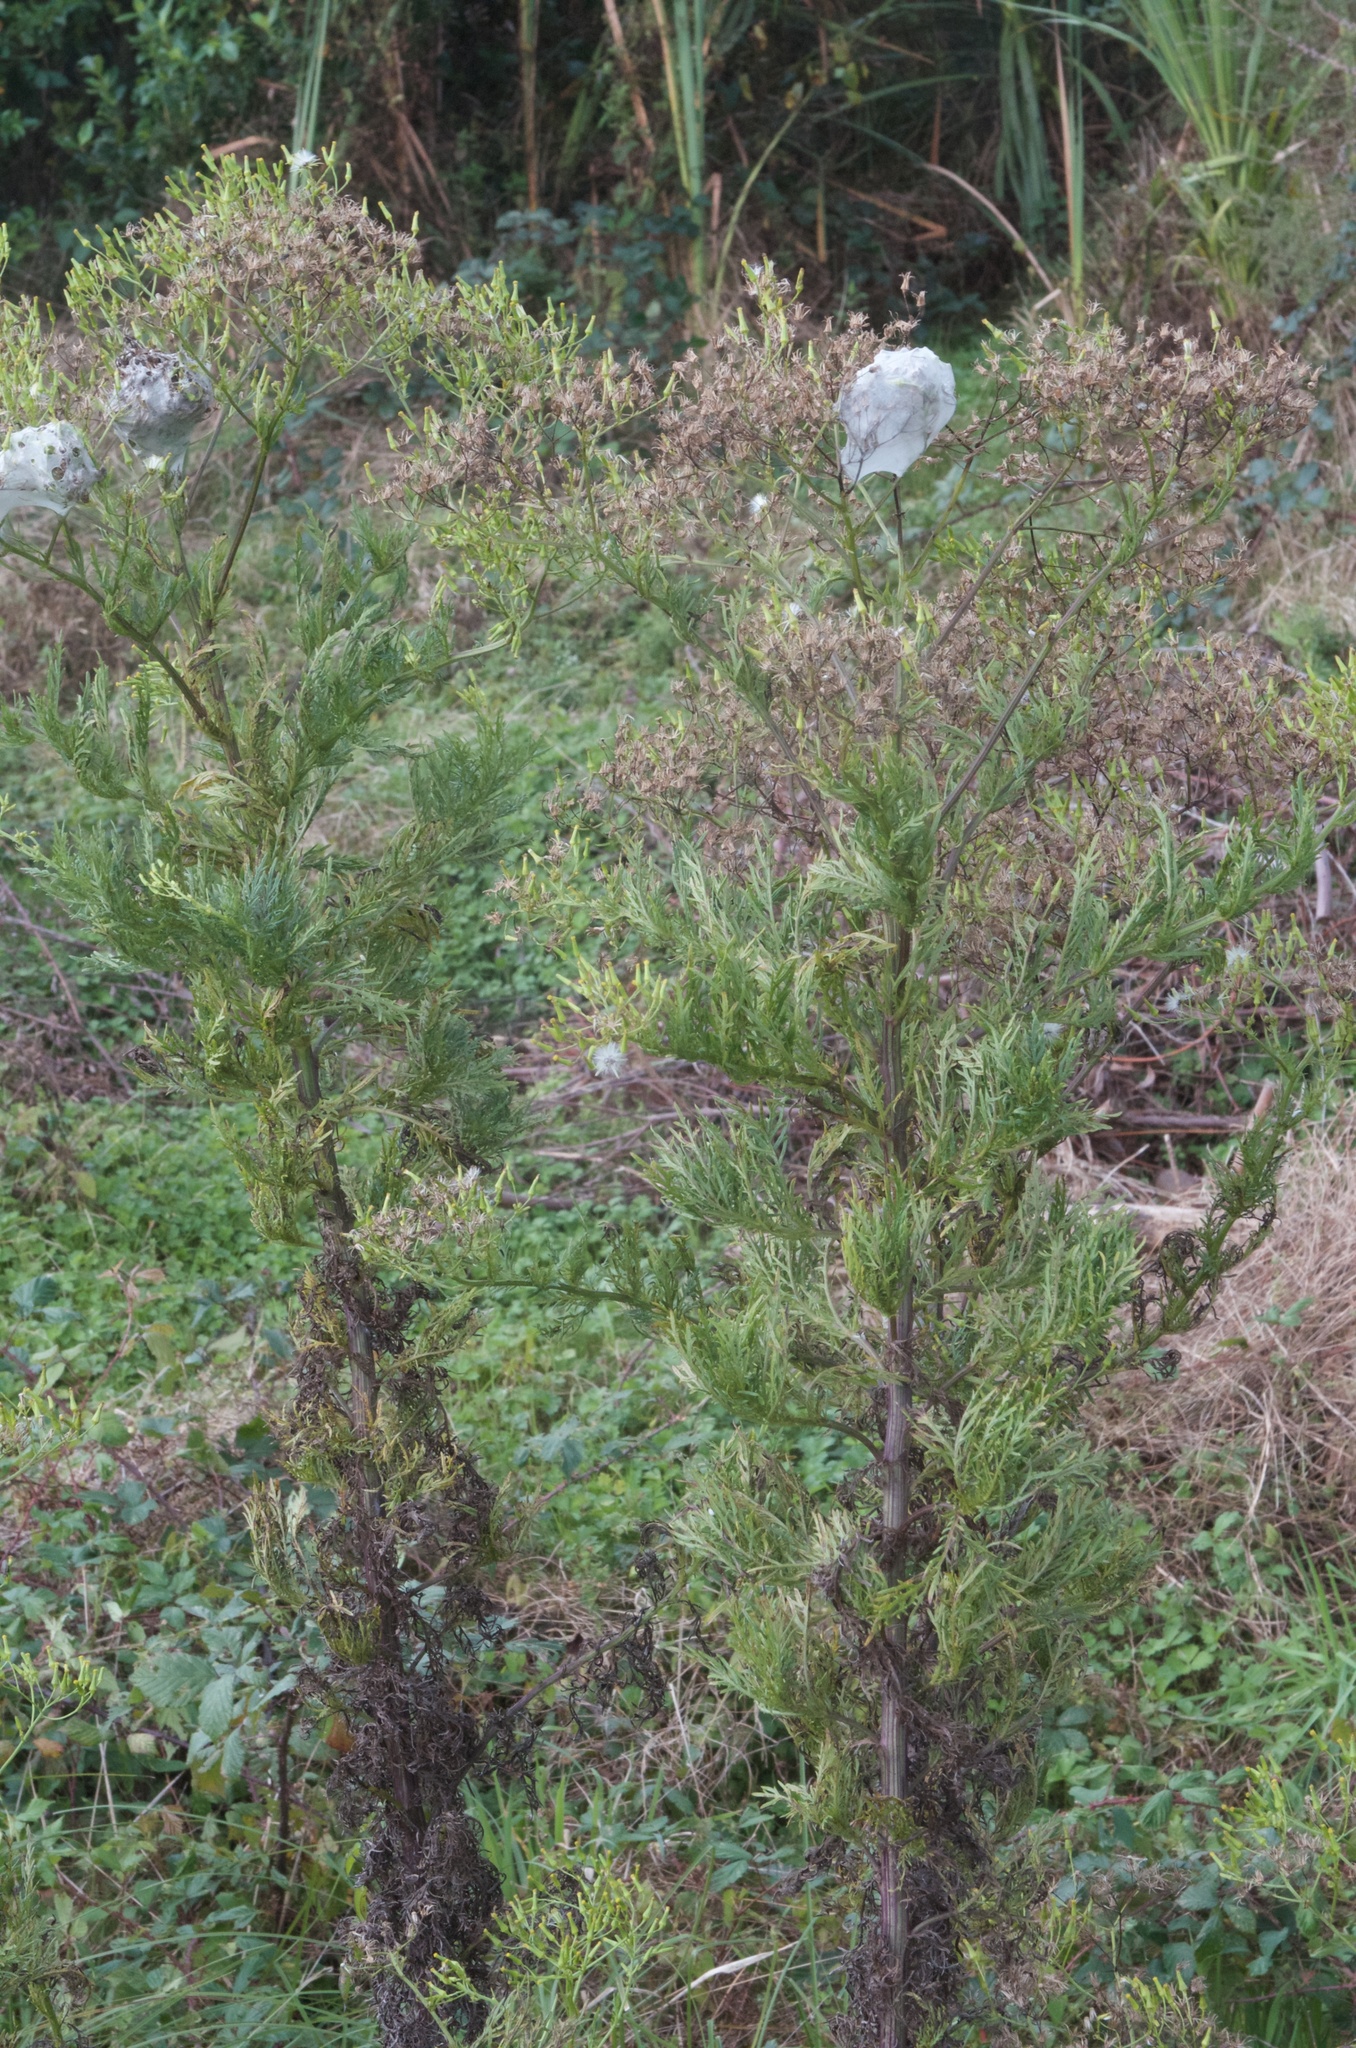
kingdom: Plantae
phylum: Tracheophyta
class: Magnoliopsida
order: Asterales
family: Asteraceae
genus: Senecio
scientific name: Senecio bipinnatisectus
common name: Australian fireweed
